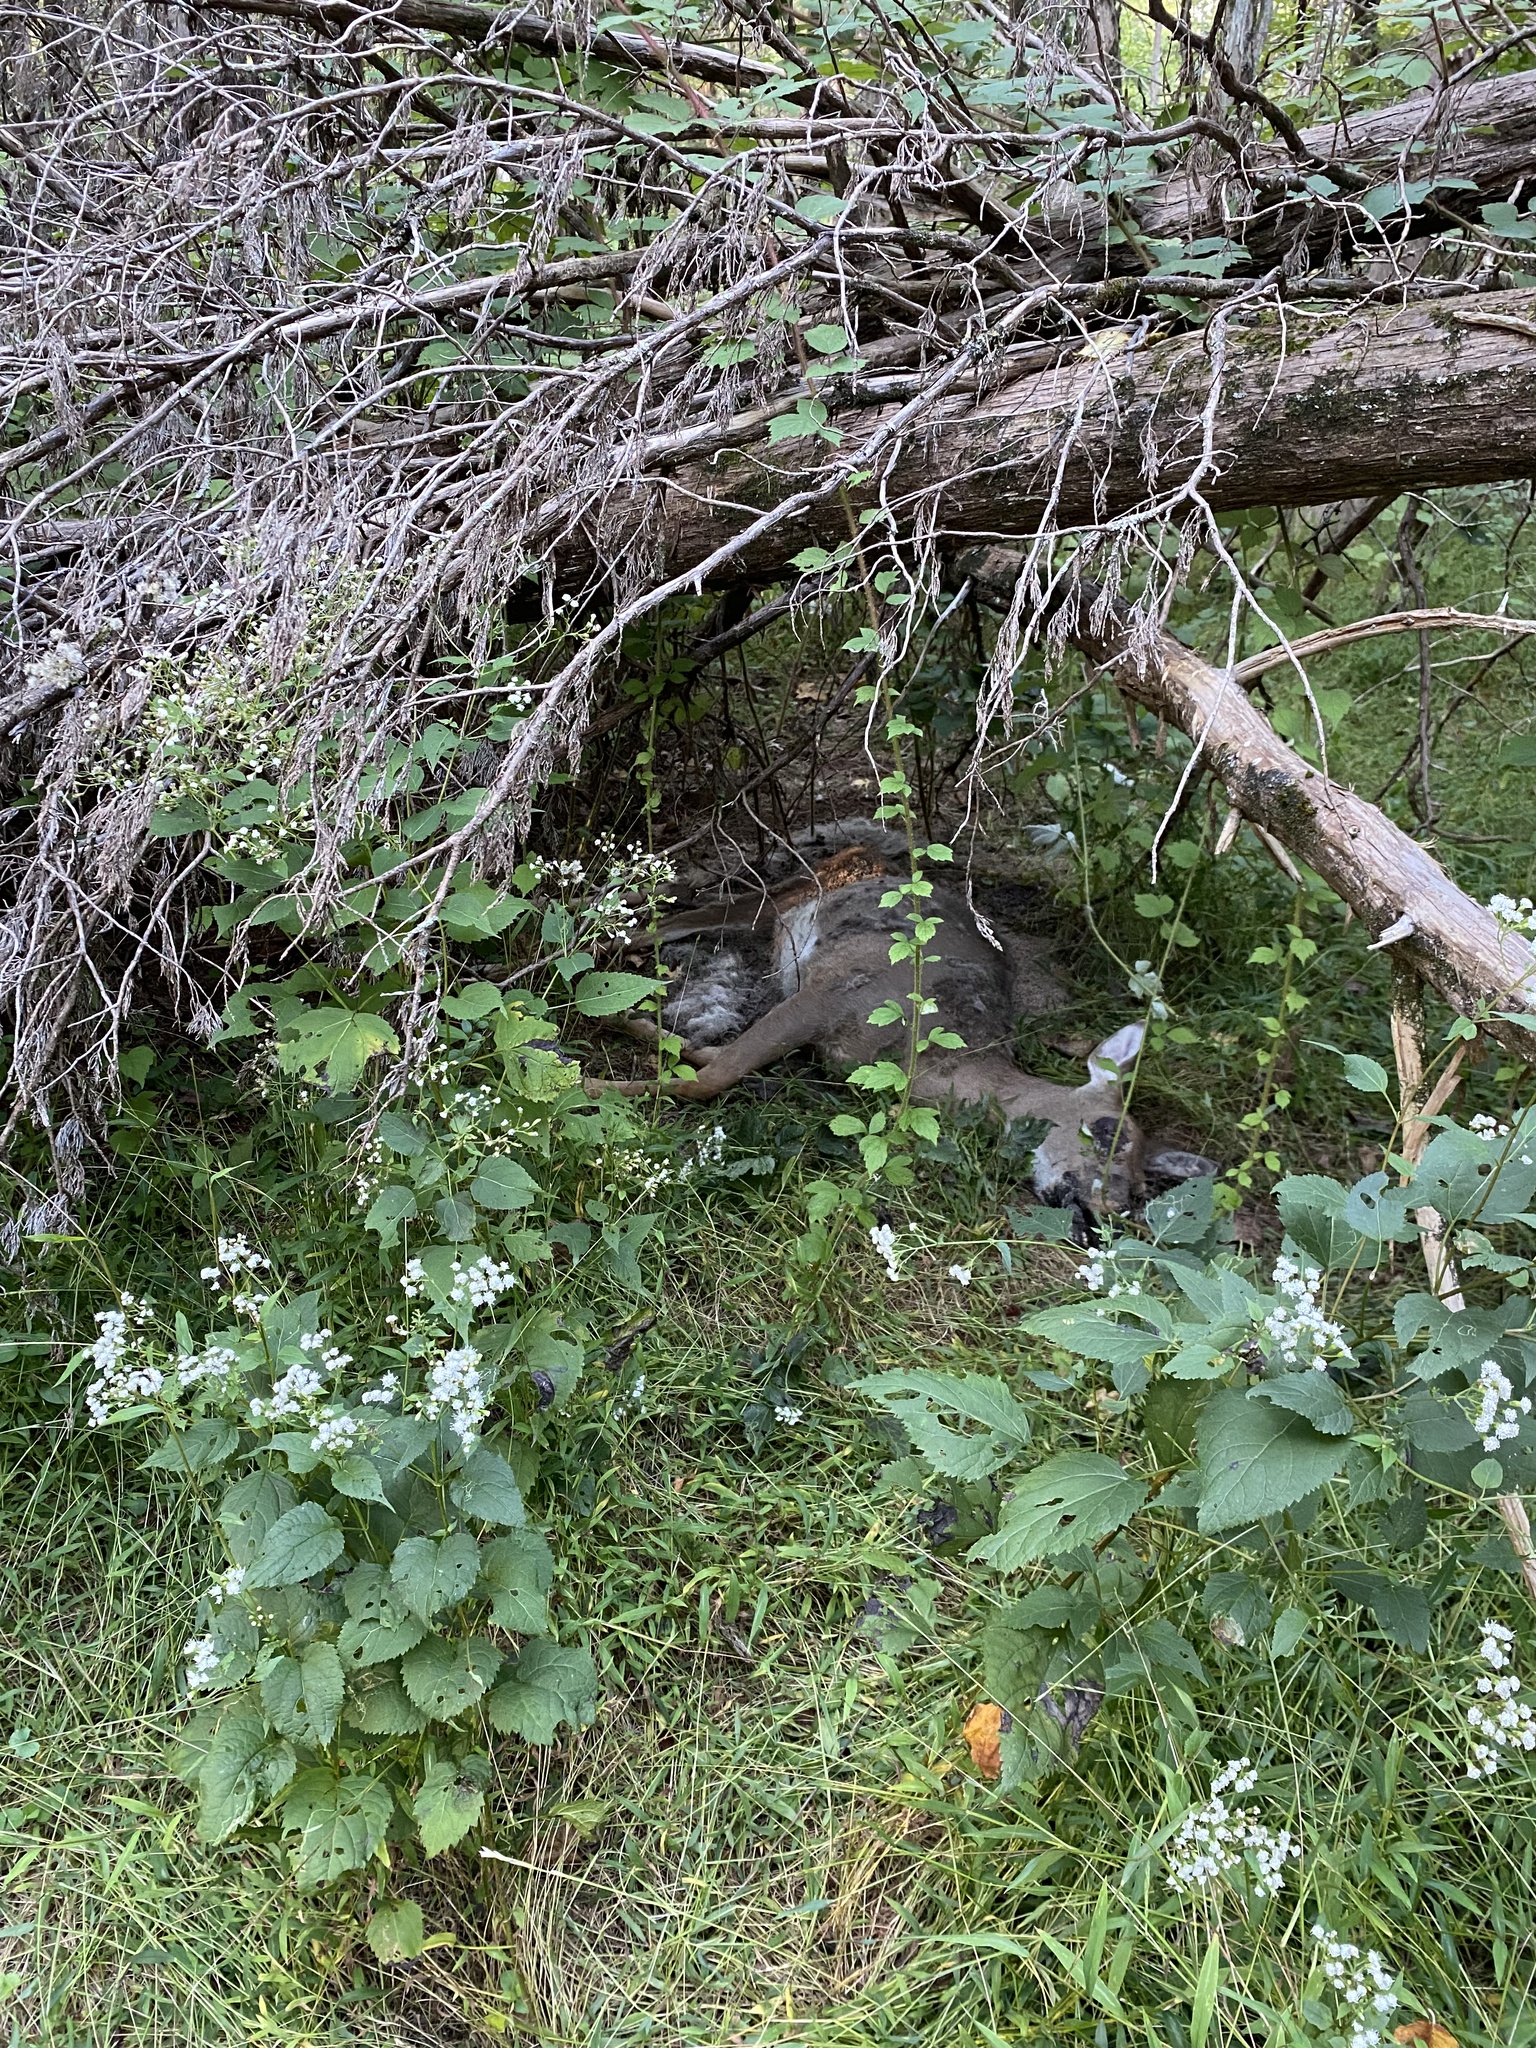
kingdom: Animalia
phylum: Chordata
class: Mammalia
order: Artiodactyla
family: Cervidae
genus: Odocoileus
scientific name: Odocoileus virginianus
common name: White-tailed deer
